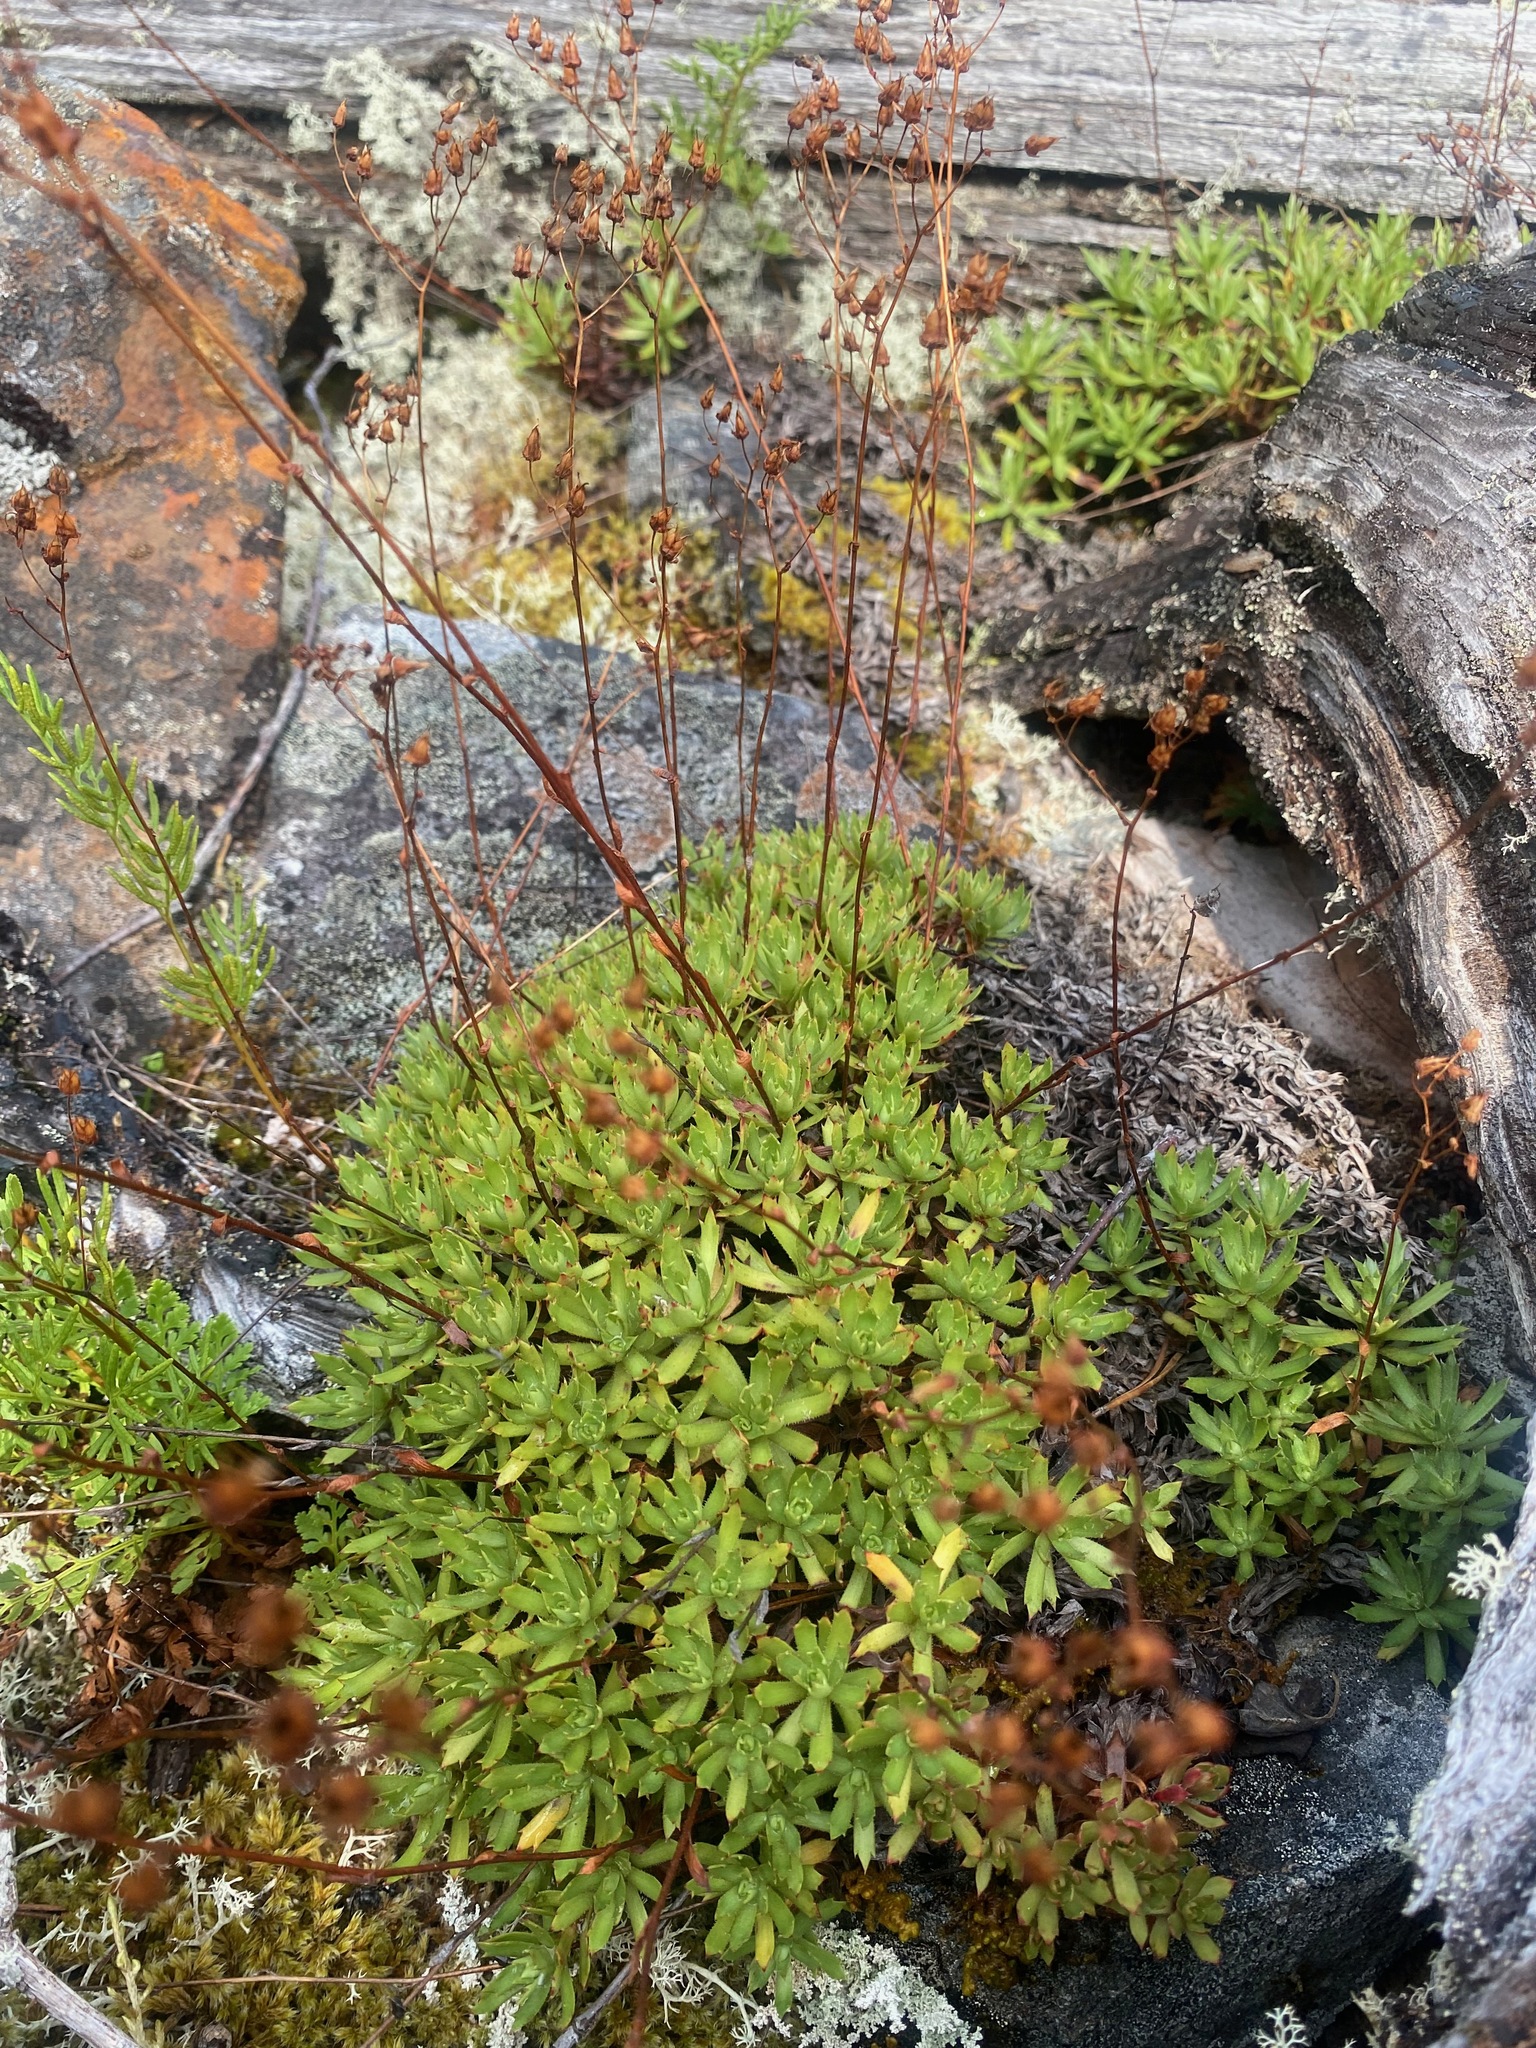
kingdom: Plantae
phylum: Tracheophyta
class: Magnoliopsida
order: Saxifragales
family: Saxifragaceae
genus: Saxifraga
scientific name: Saxifraga tricuspidata
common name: Prickly saxifrage
